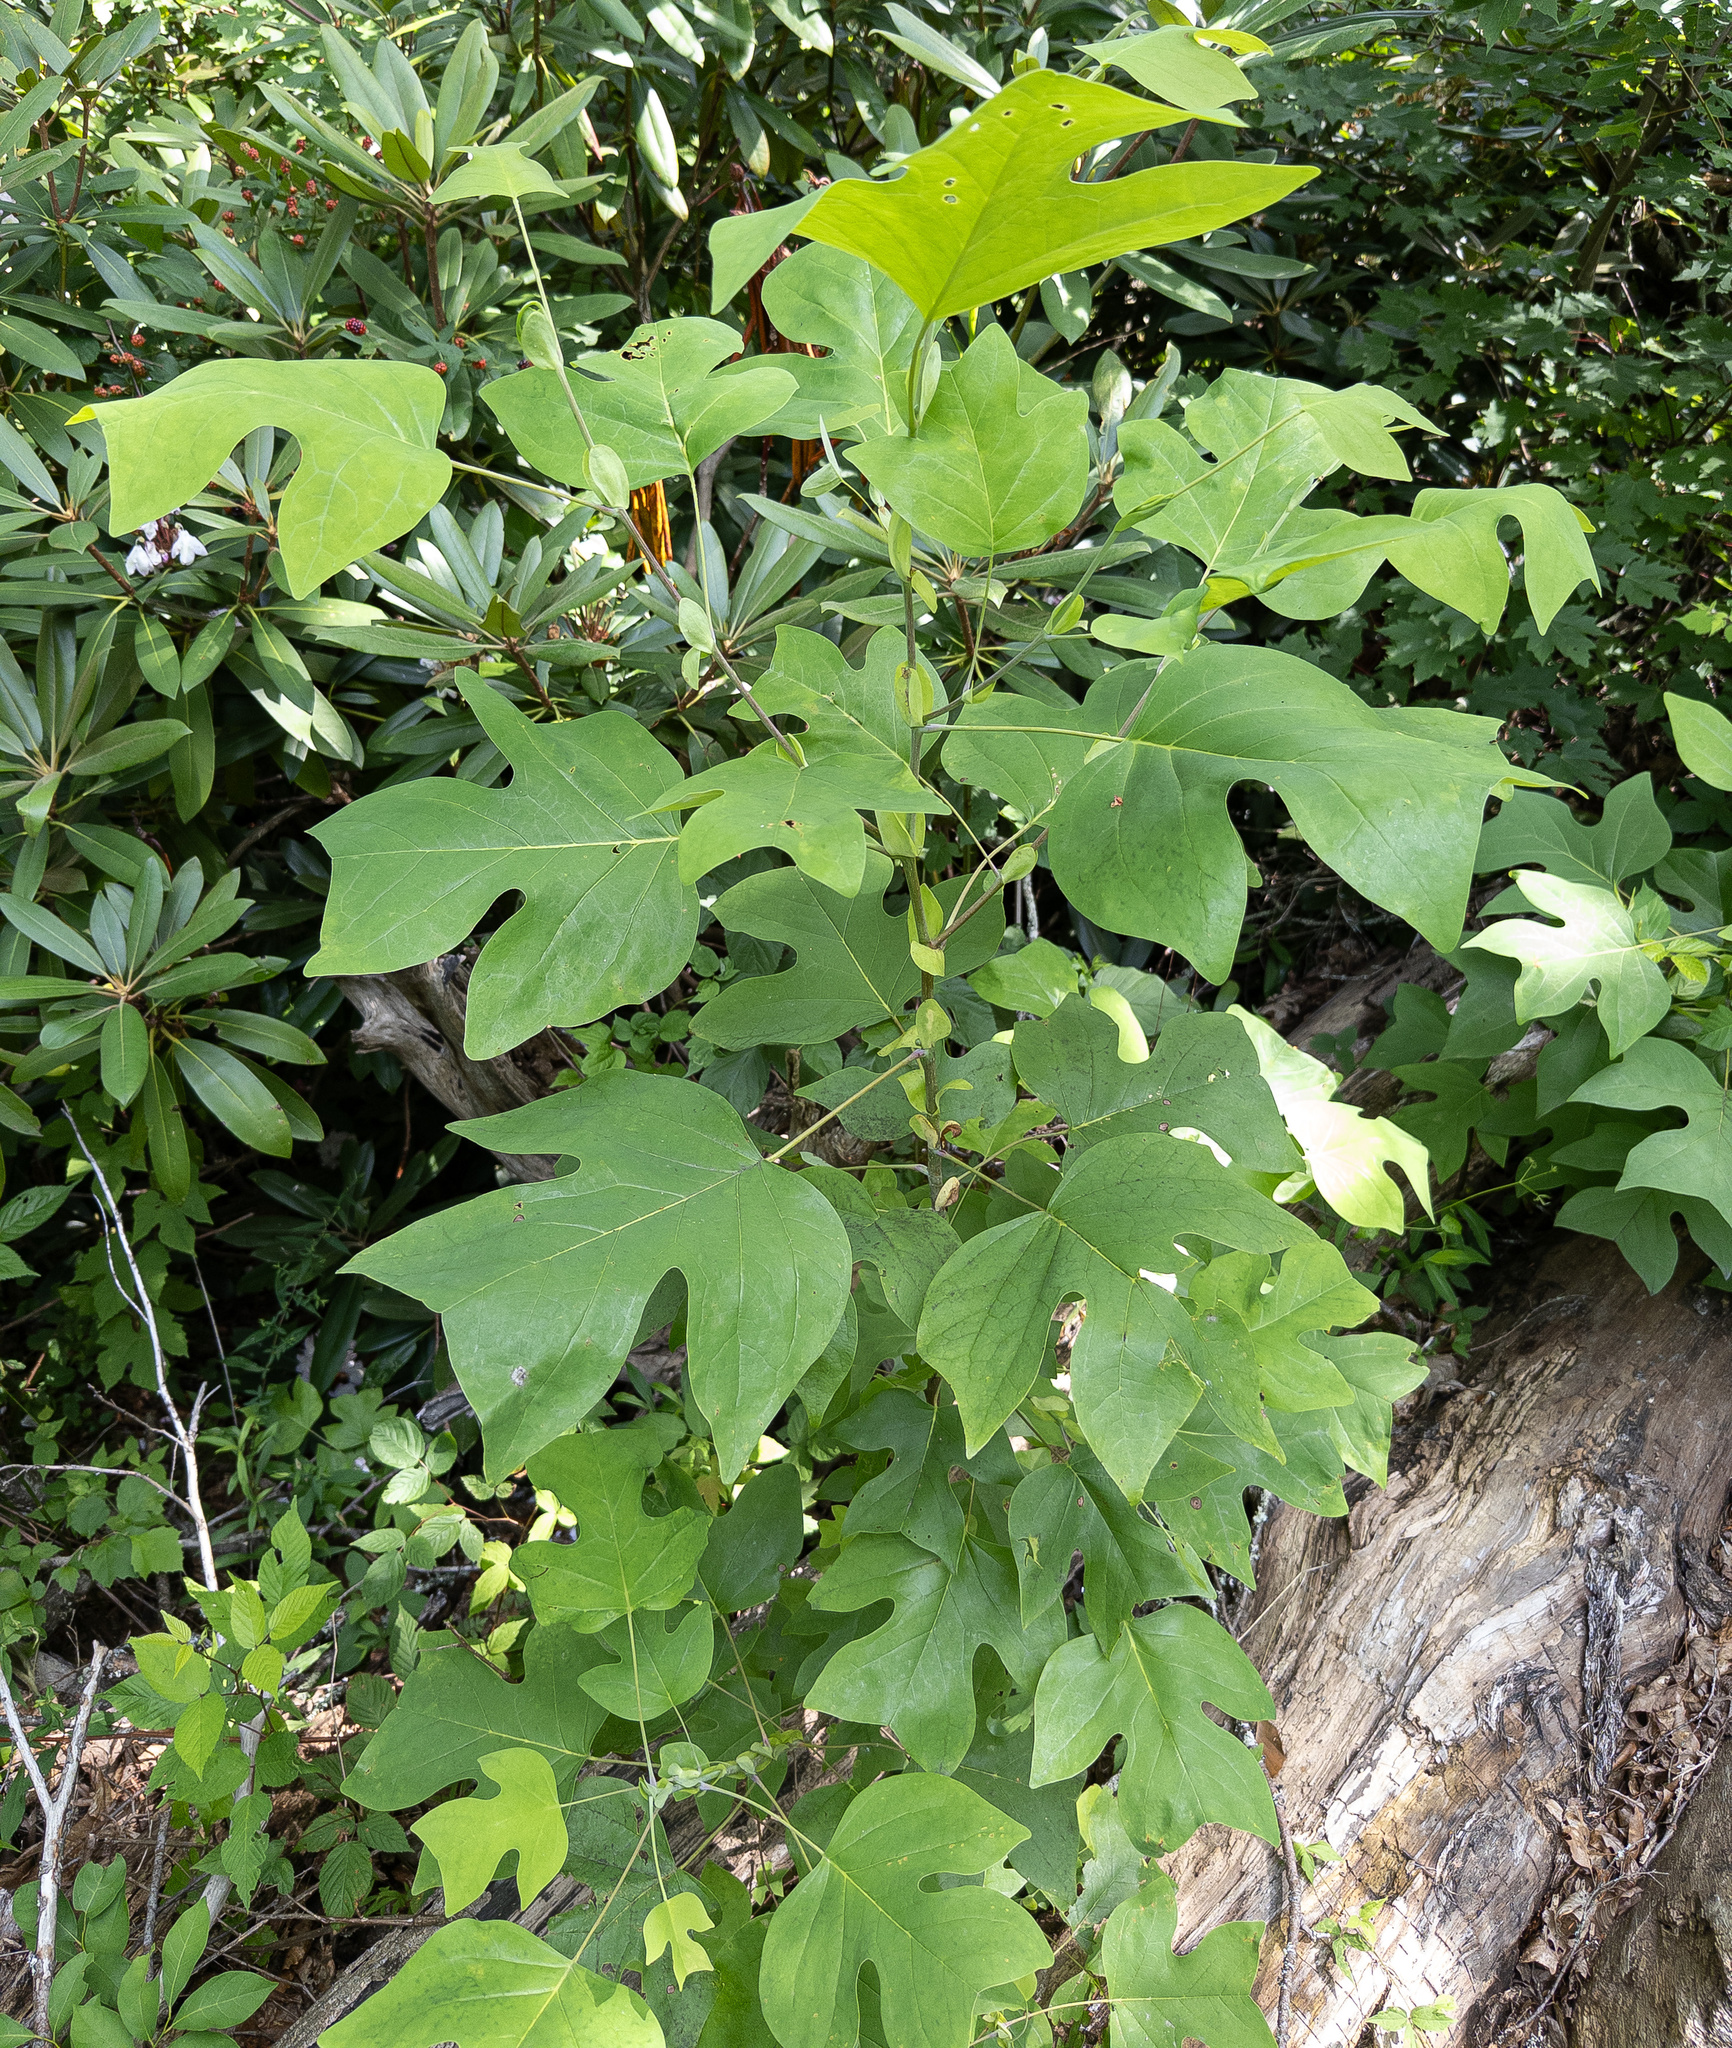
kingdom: Plantae
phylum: Tracheophyta
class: Magnoliopsida
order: Magnoliales
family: Magnoliaceae
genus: Liriodendron
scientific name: Liriodendron tulipifera
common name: Tulip tree
